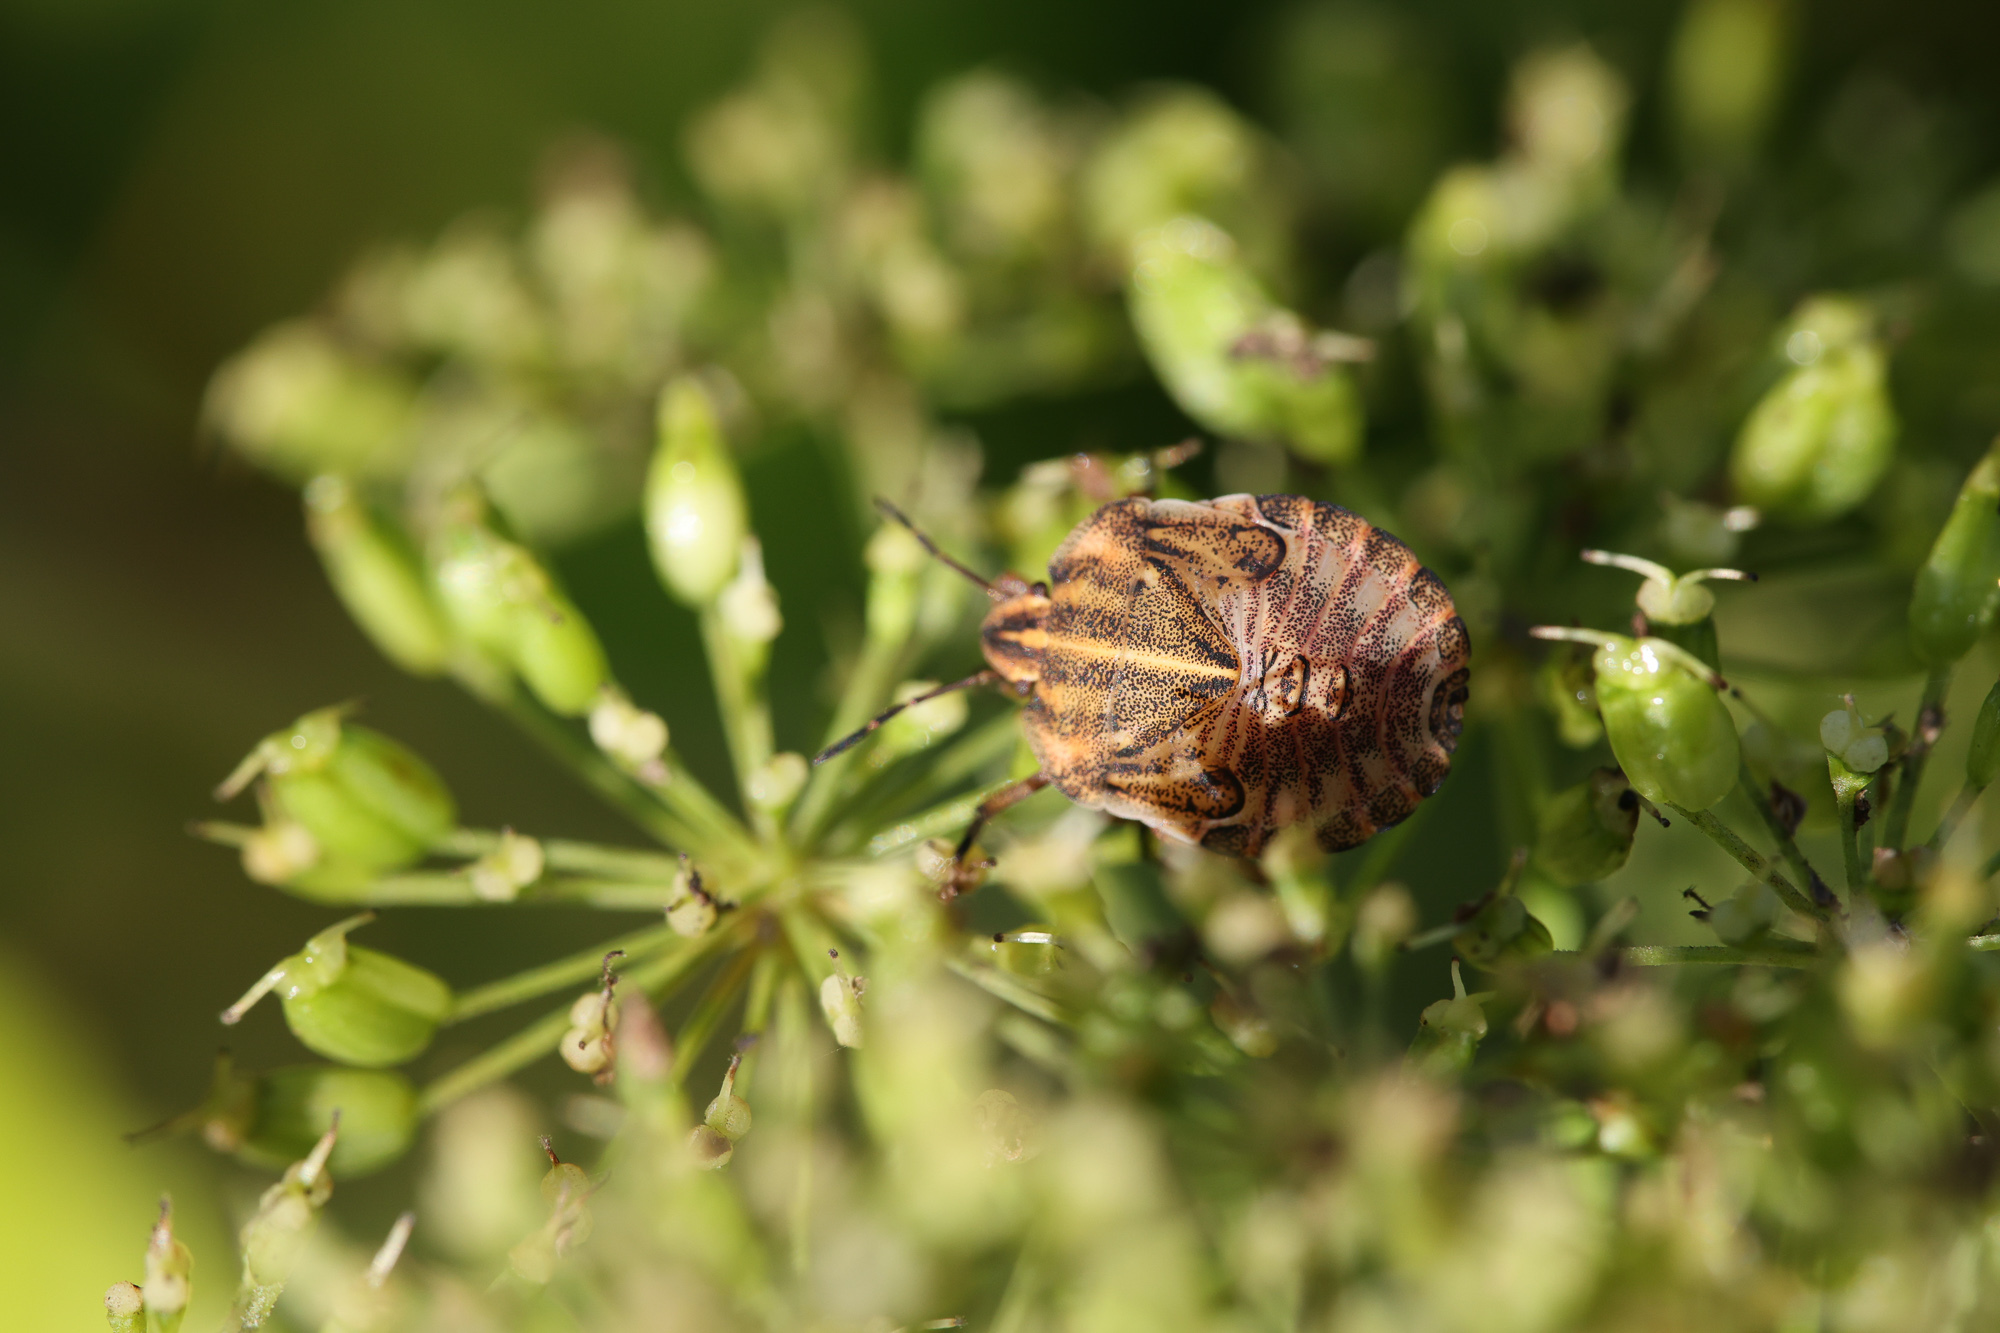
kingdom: Animalia
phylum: Arthropoda
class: Insecta
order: Hemiptera
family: Pentatomidae
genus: Graphosoma
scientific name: Graphosoma italicum
